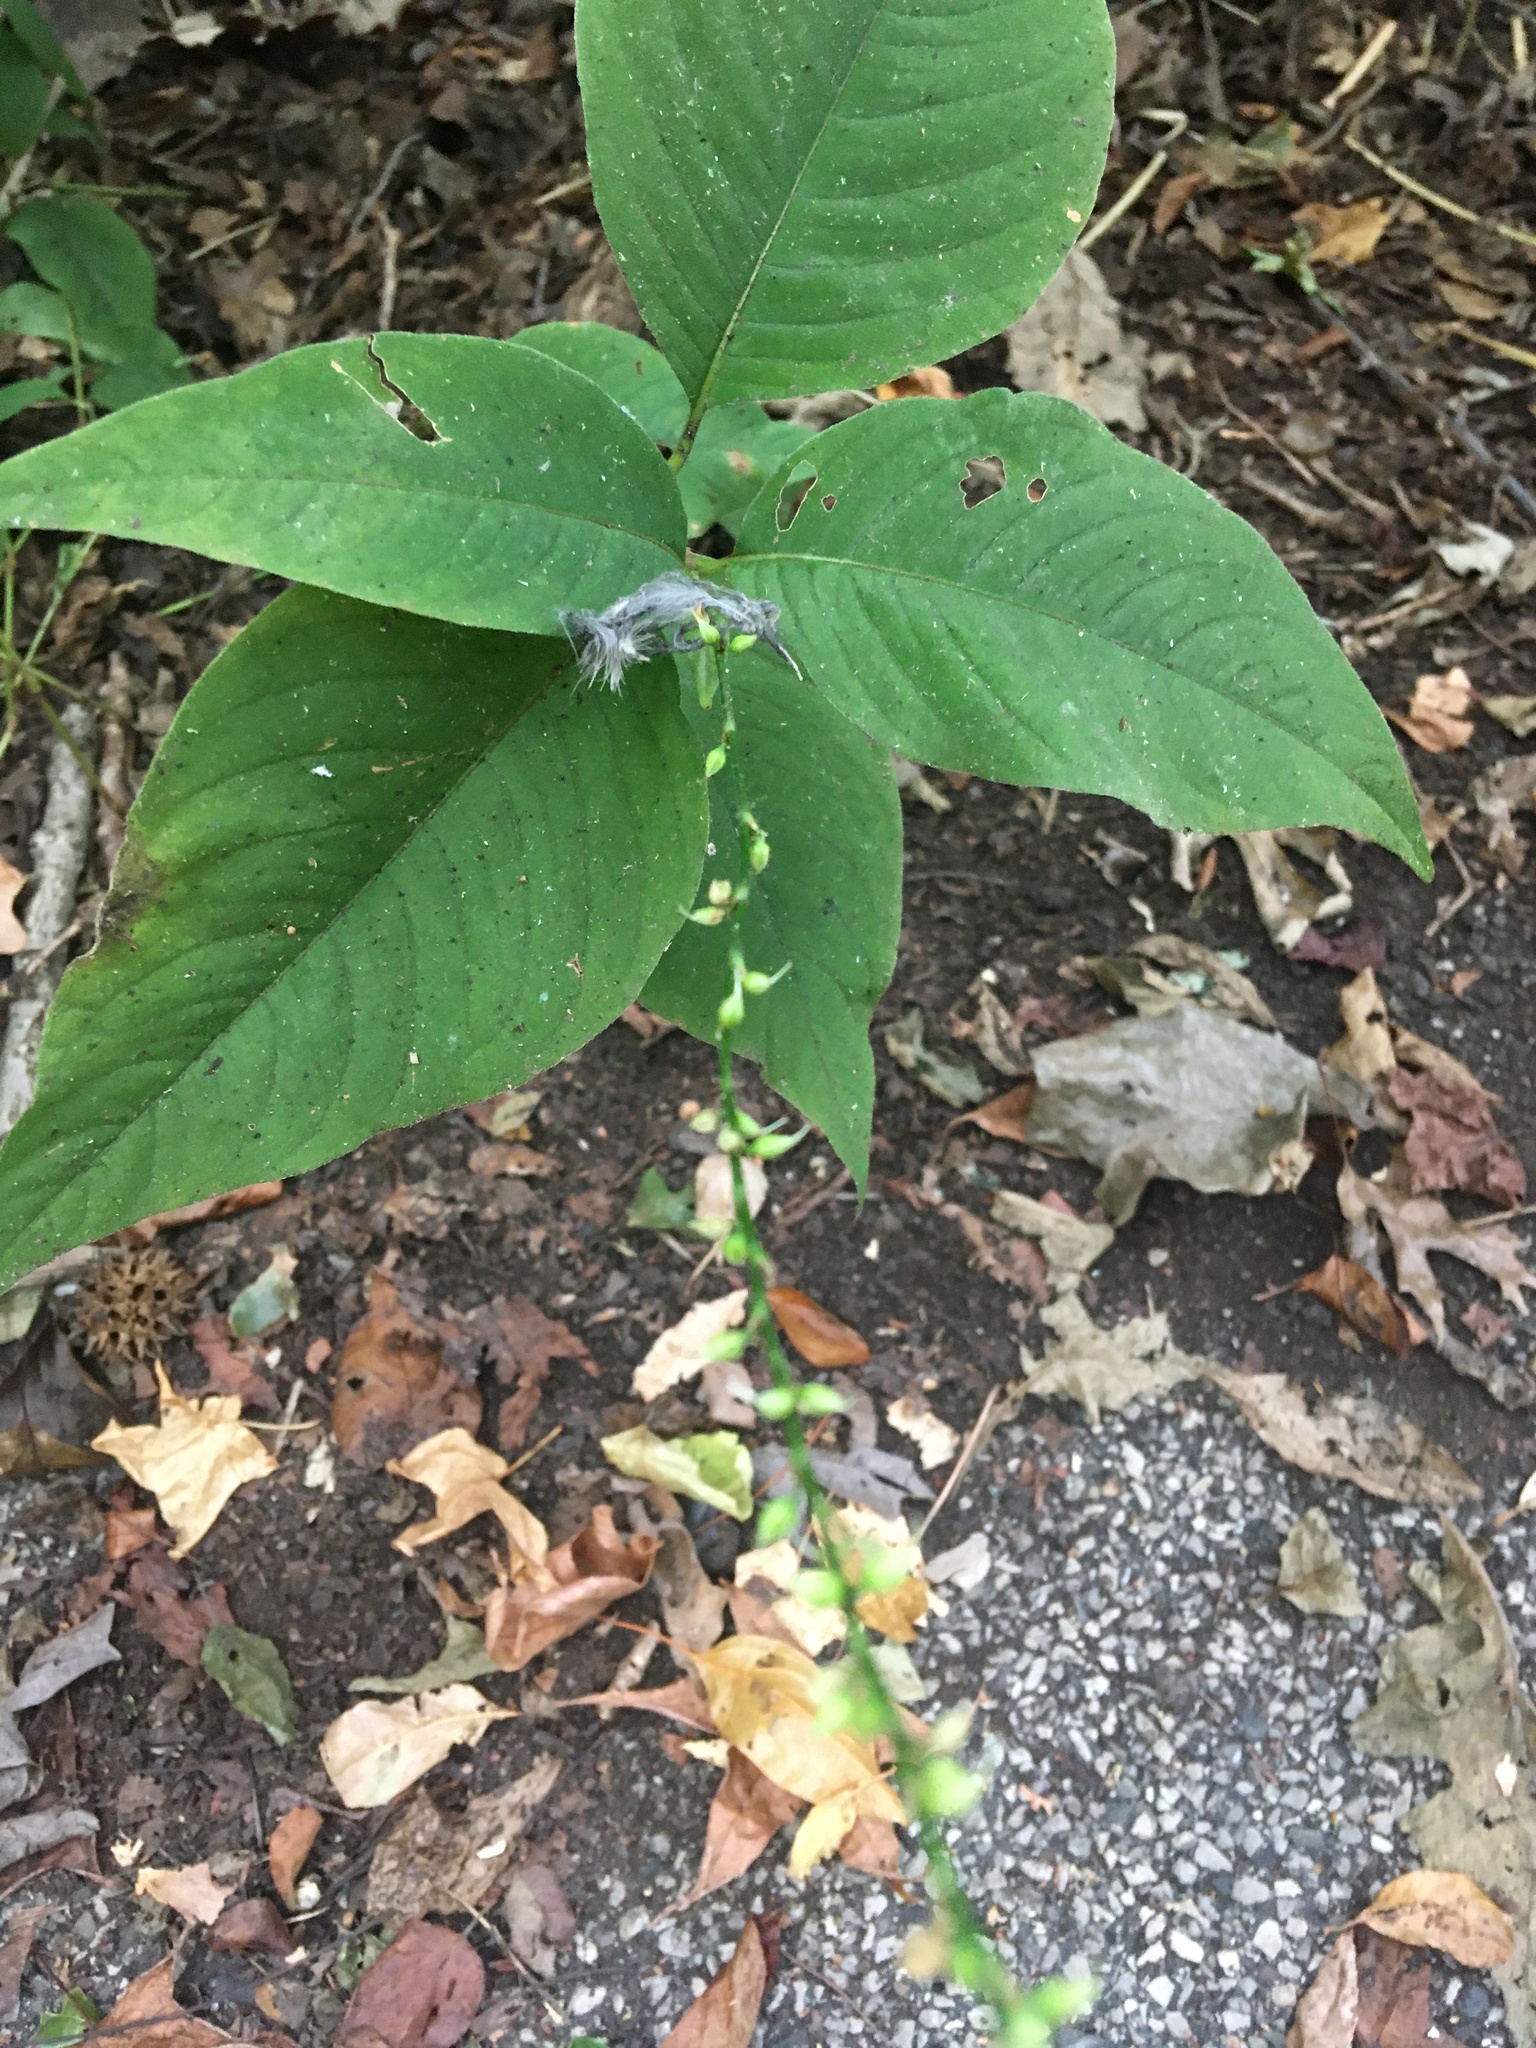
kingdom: Plantae
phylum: Tracheophyta
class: Magnoliopsida
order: Caryophyllales
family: Polygonaceae
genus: Persicaria
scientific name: Persicaria virginiana
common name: Jumpseed
